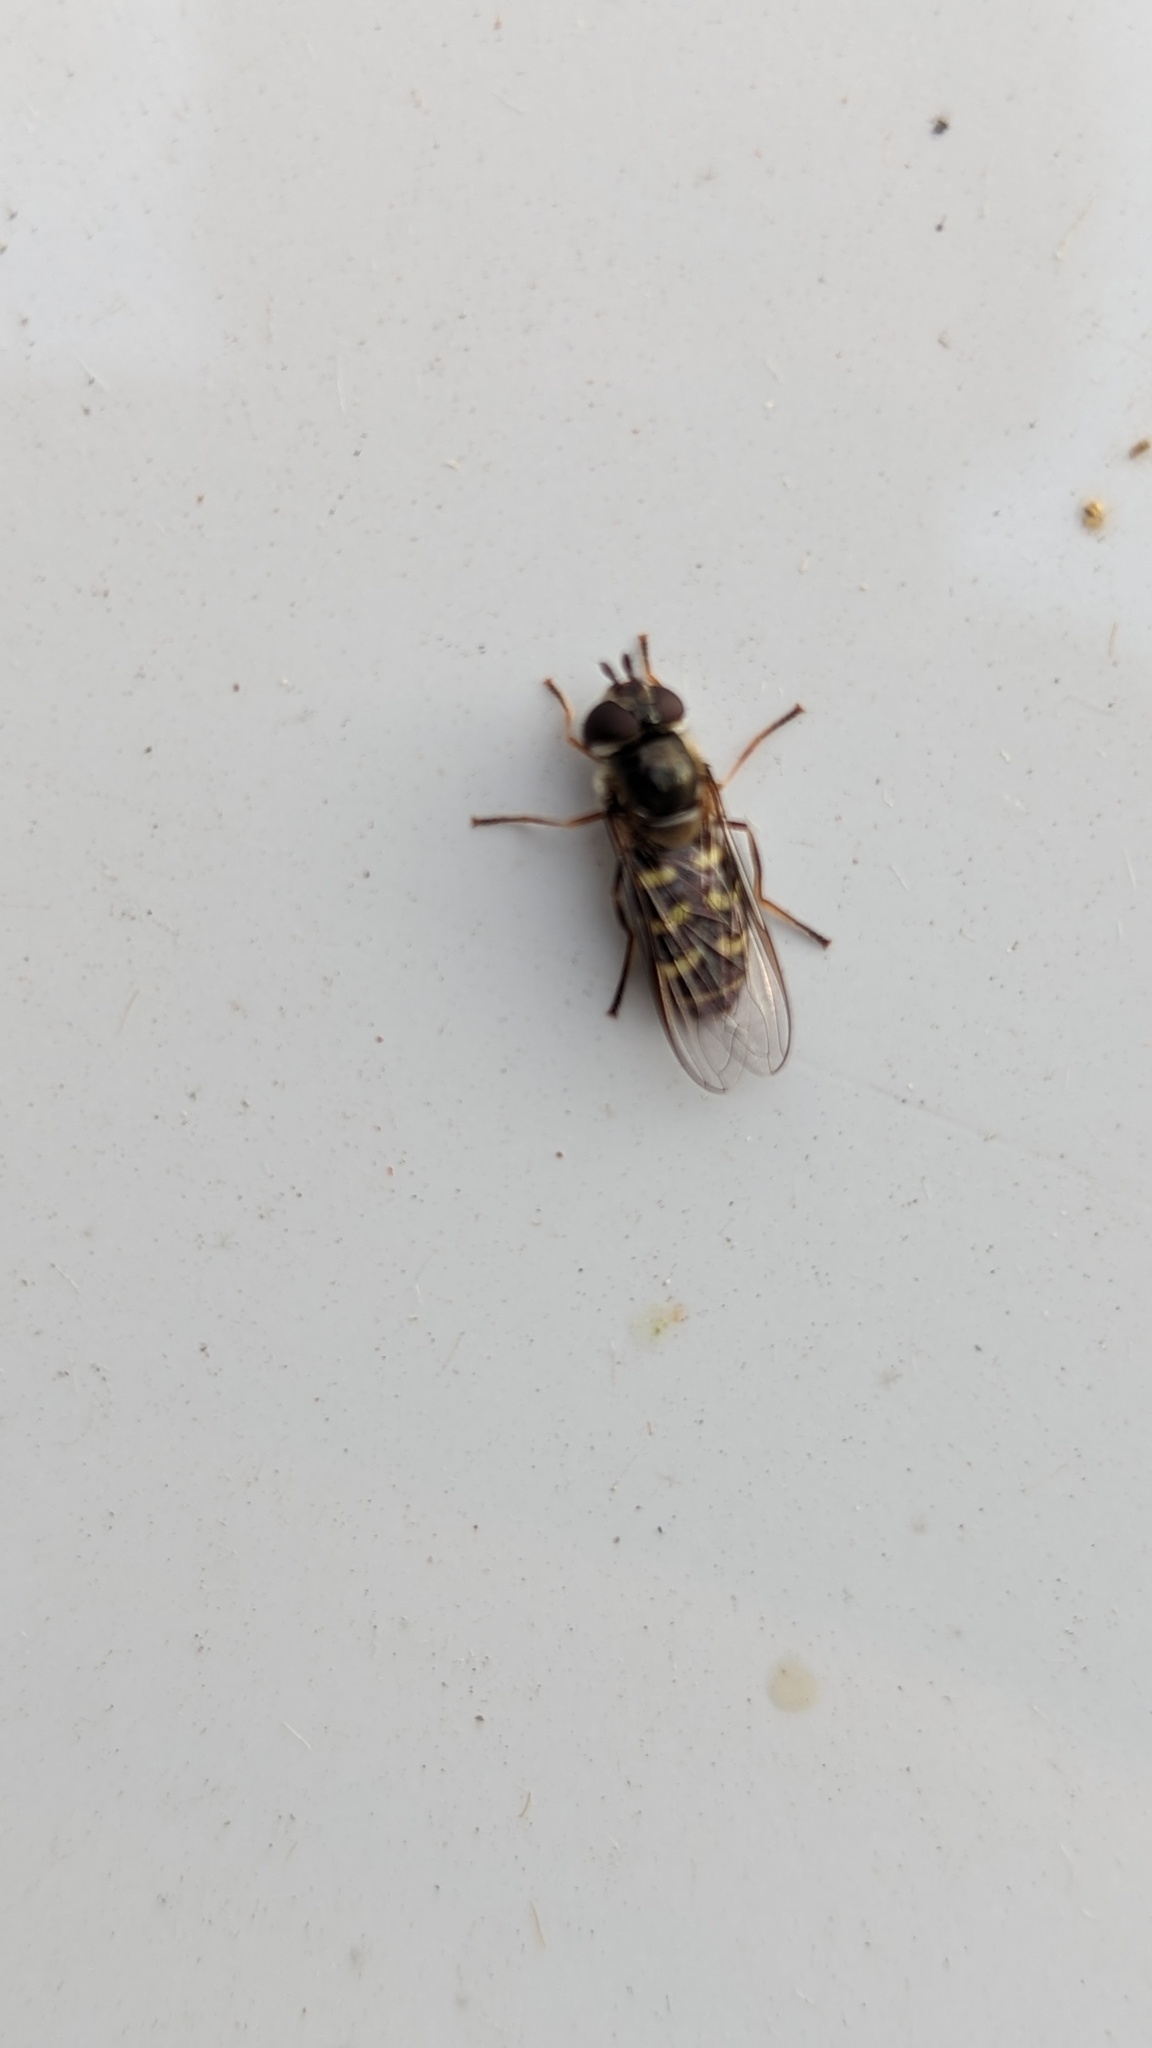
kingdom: Animalia
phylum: Arthropoda
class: Insecta
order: Diptera
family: Syrphidae
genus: Lapposyrphus
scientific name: Lapposyrphus lapponicus
